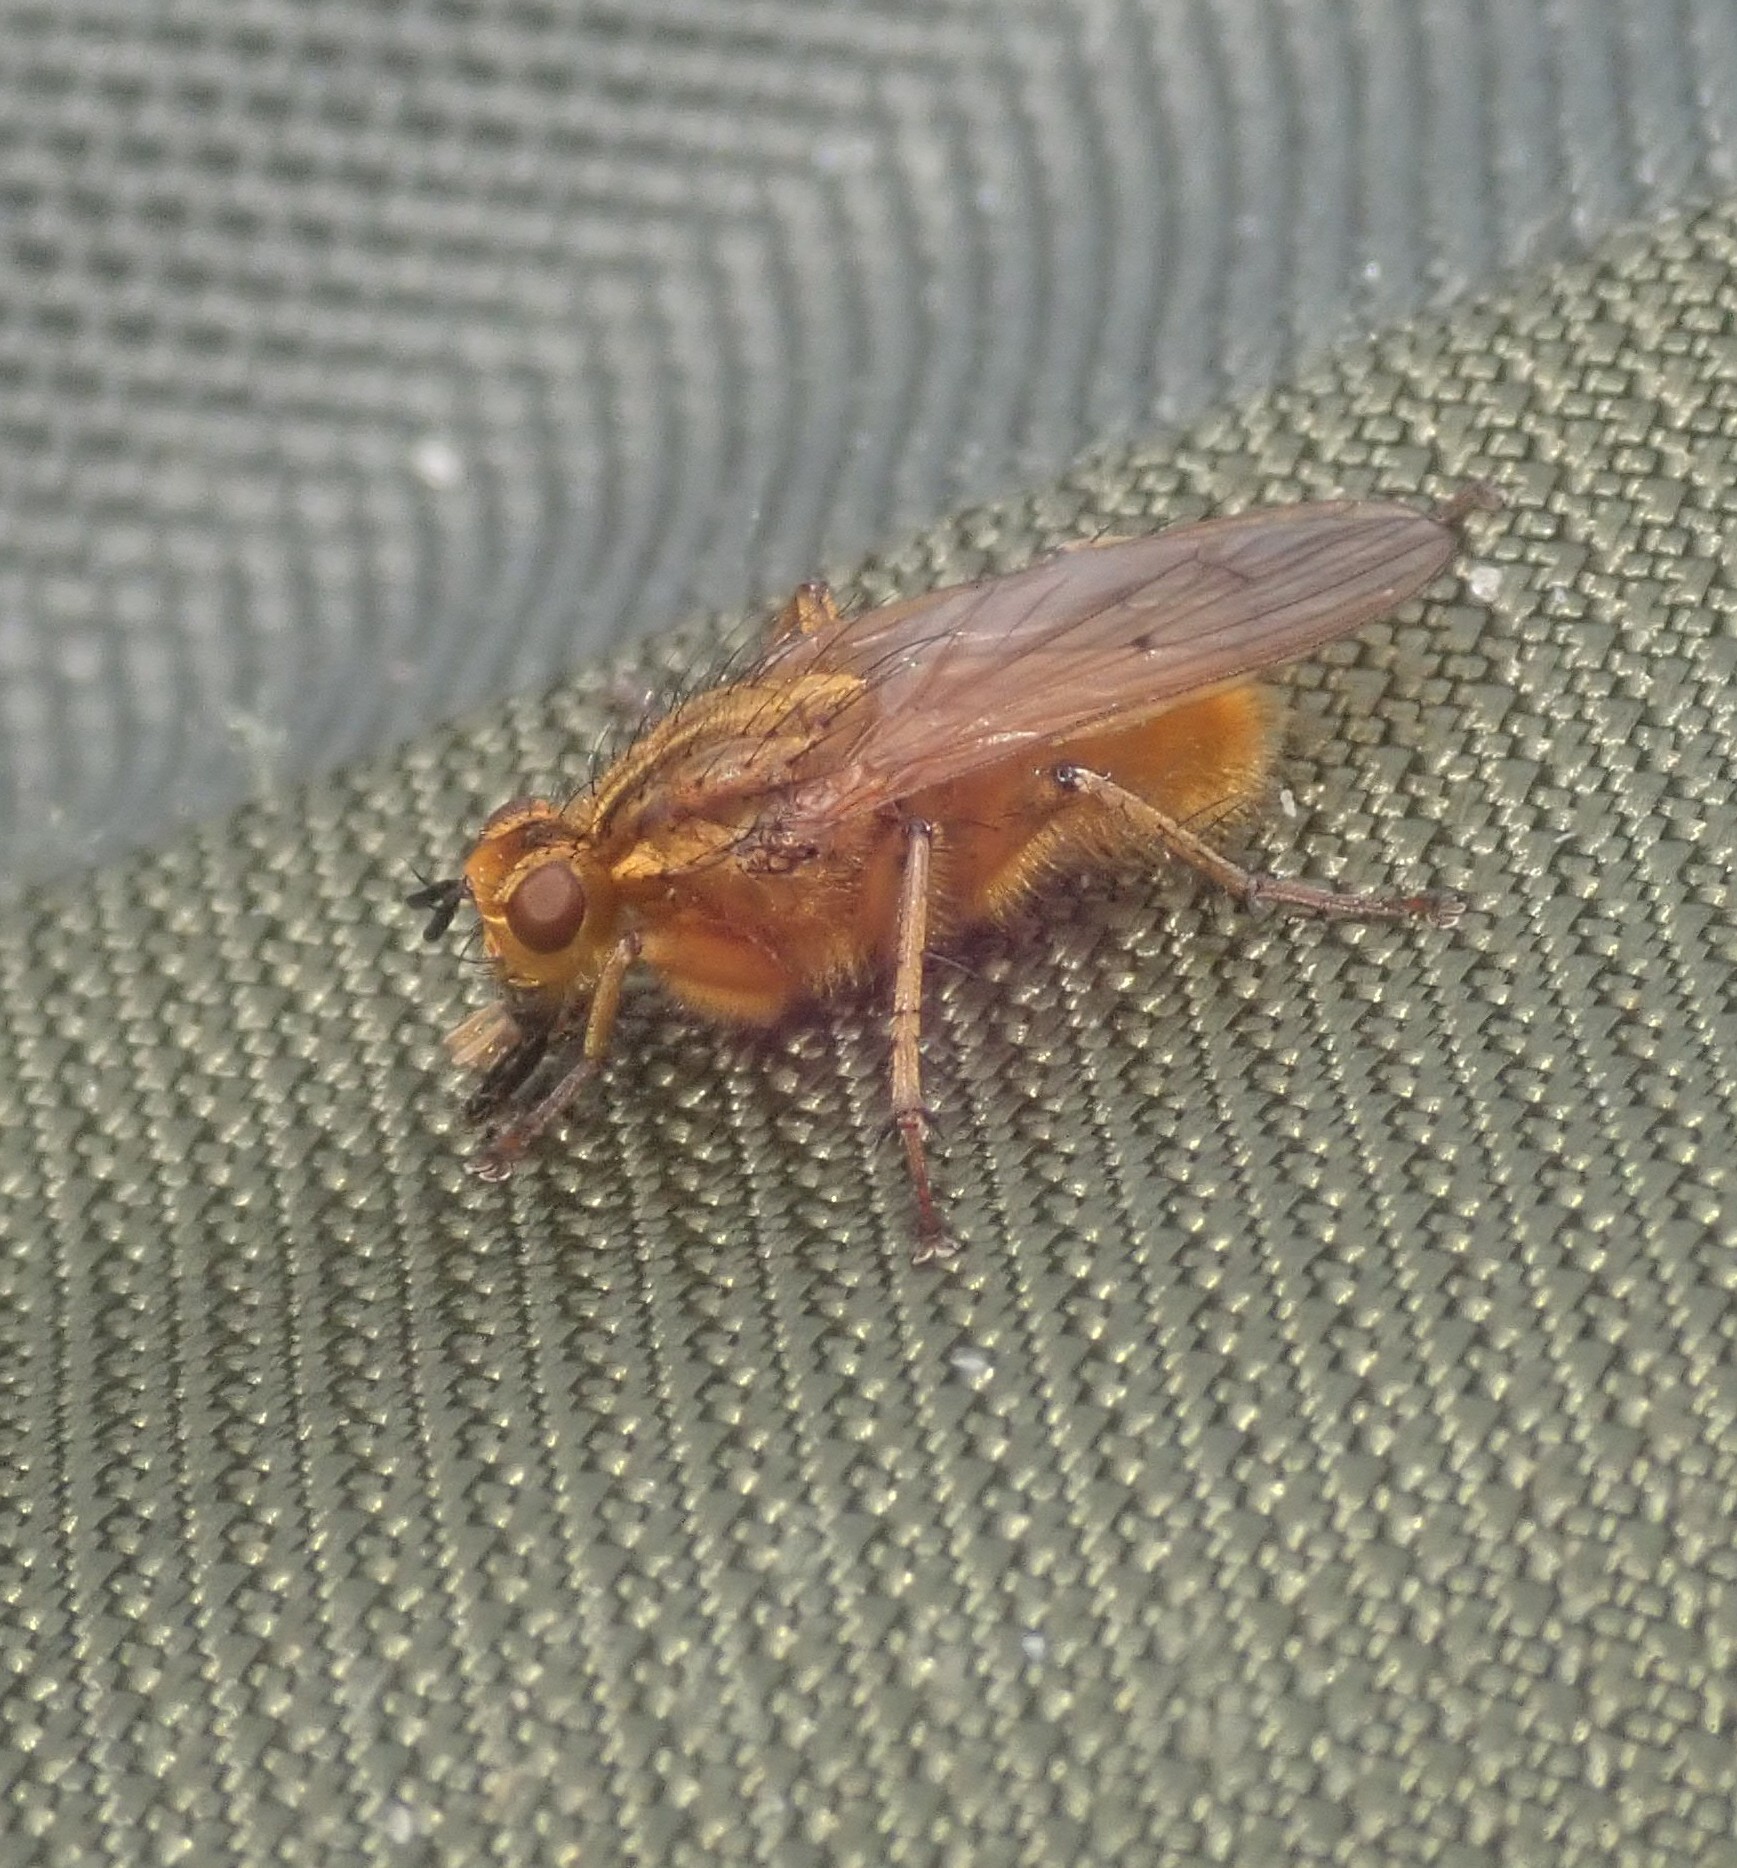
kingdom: Animalia
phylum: Arthropoda
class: Insecta
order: Diptera
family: Scathophagidae
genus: Scathophaga
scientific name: Scathophaga stercoraria
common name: Yellow dung fly
